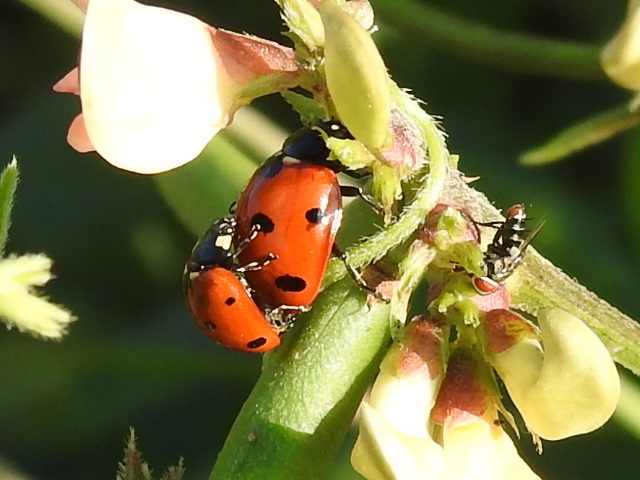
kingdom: Animalia
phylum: Arthropoda
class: Insecta
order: Coleoptera
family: Coccinellidae
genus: Coccinella
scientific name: Coccinella septempunctata
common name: Sevenspotted lady beetle
